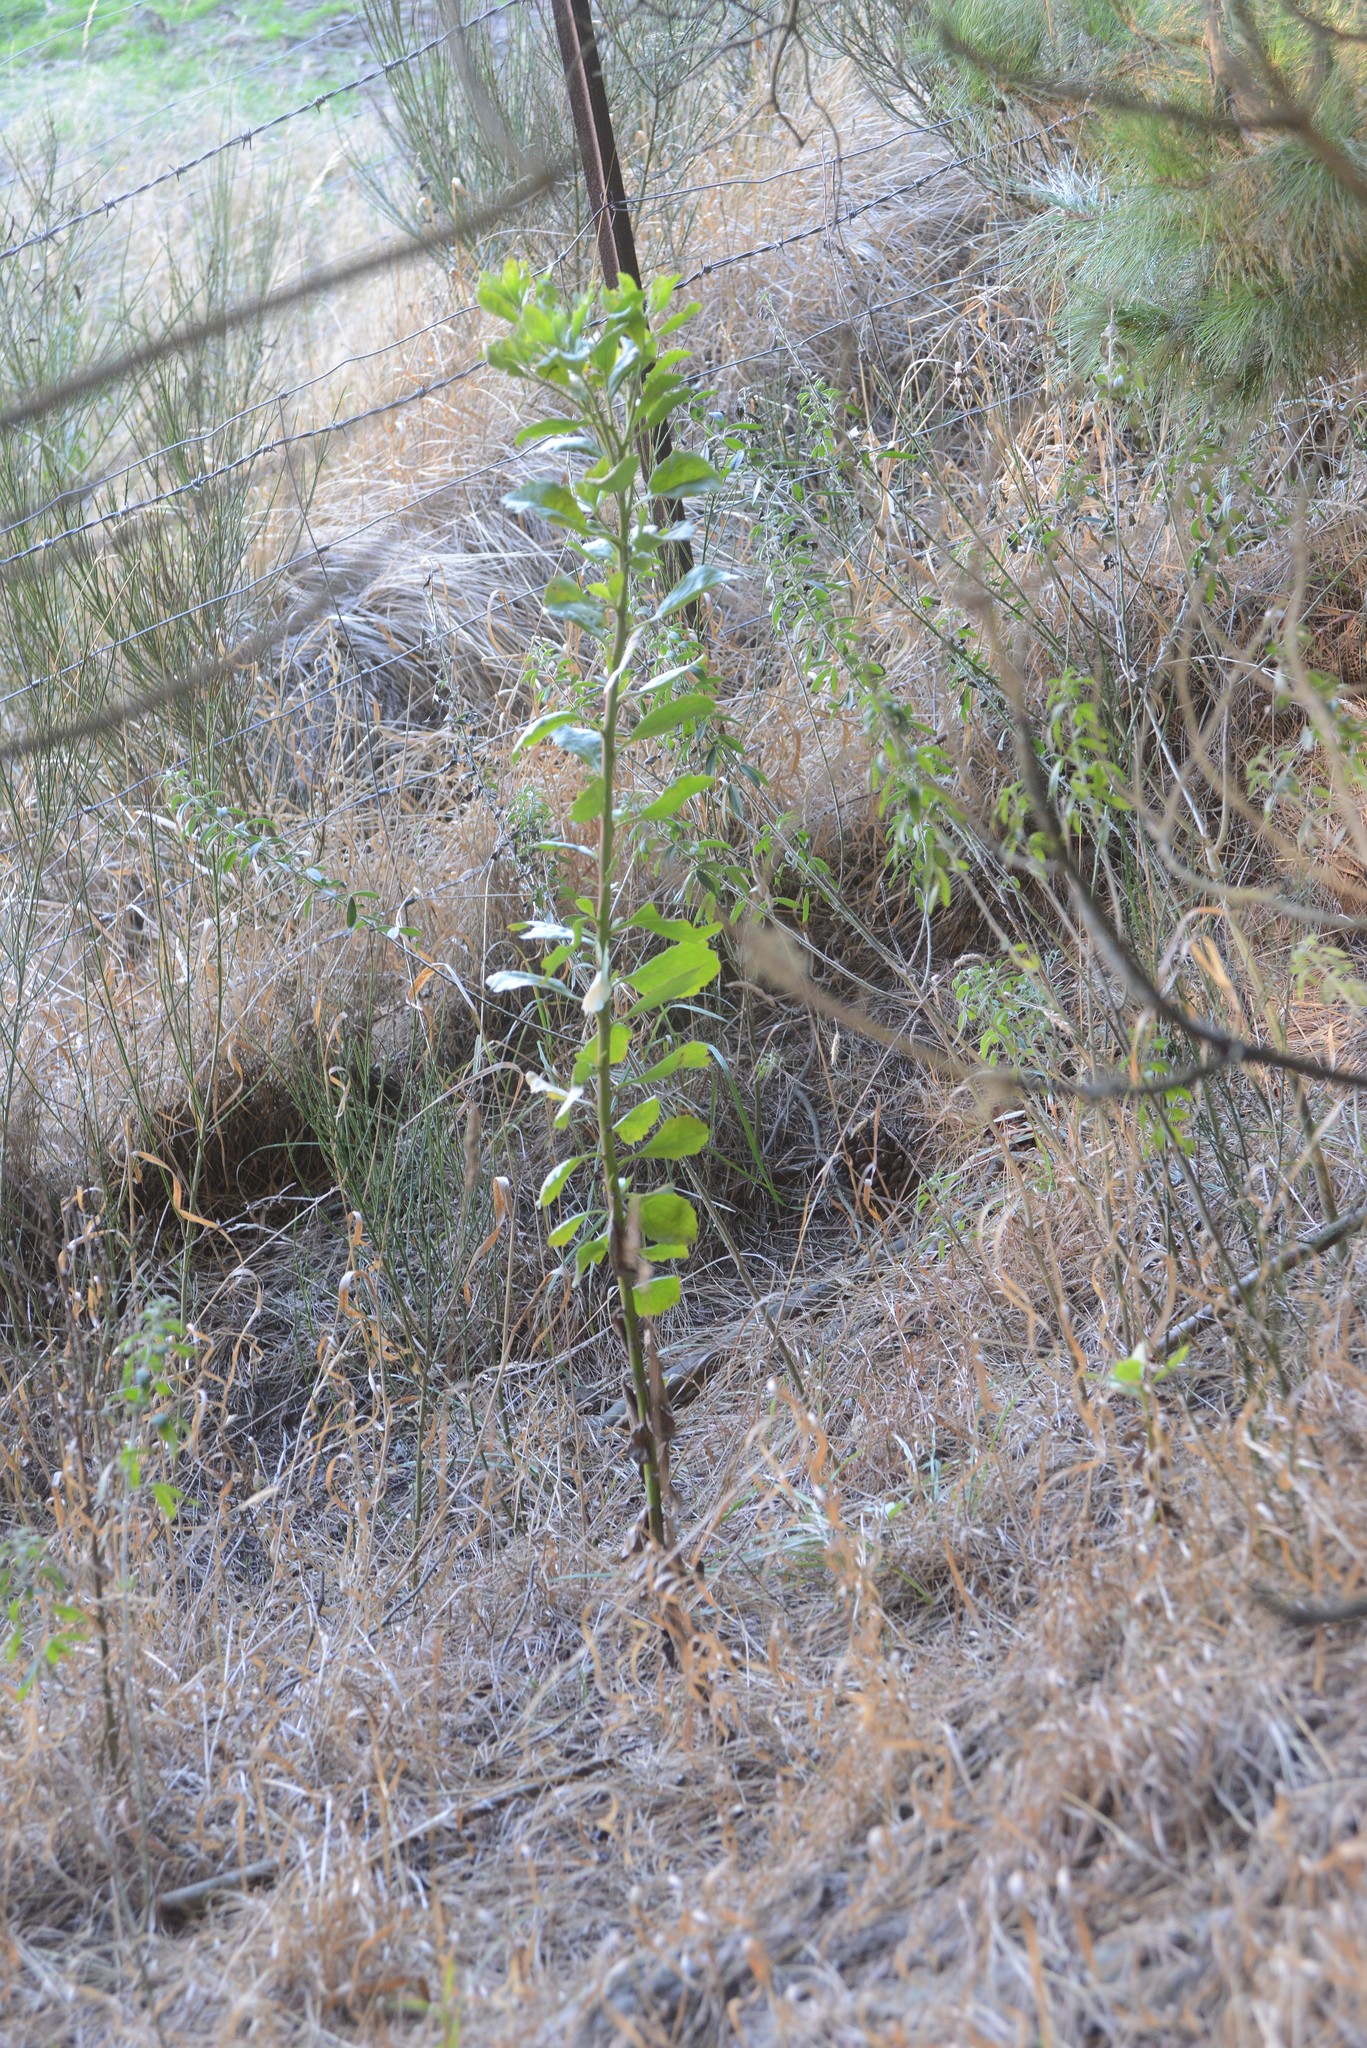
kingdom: Plantae
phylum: Tracheophyta
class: Magnoliopsida
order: Asterales
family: Asteraceae
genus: Osteospermum
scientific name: Osteospermum moniliferum
